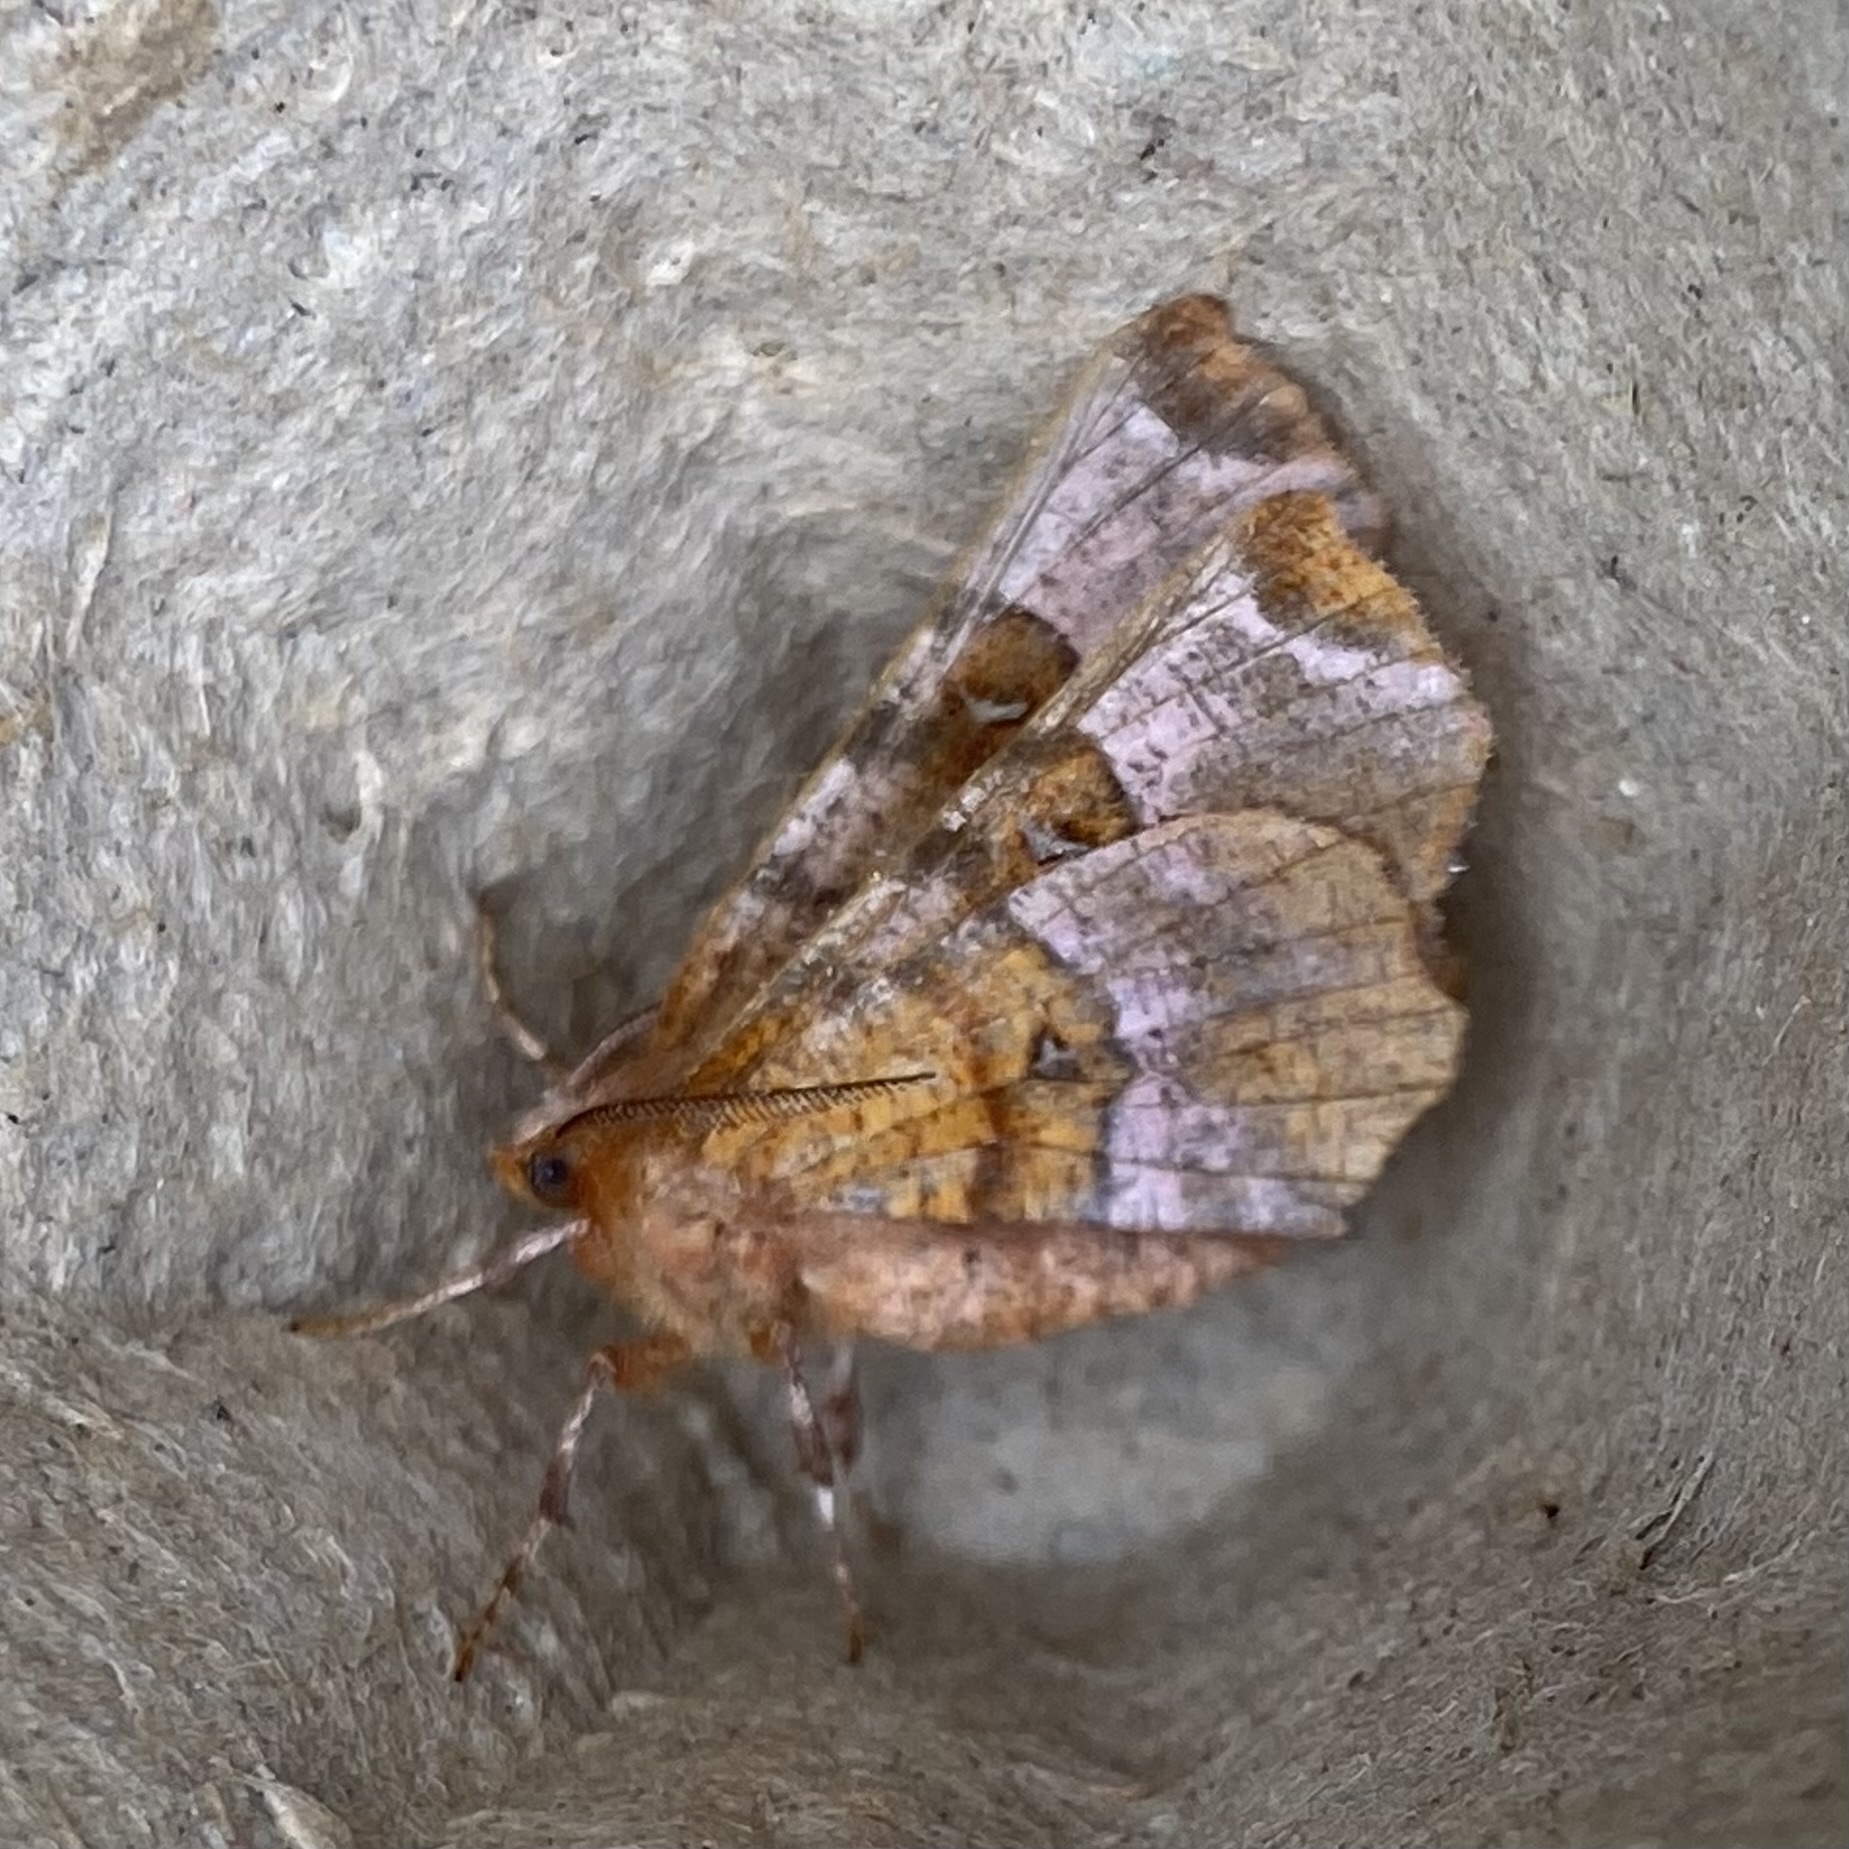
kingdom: Animalia
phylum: Arthropoda
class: Insecta
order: Lepidoptera
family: Geometridae
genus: Selenia
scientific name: Selenia tetralunaria
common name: Purple thorn
